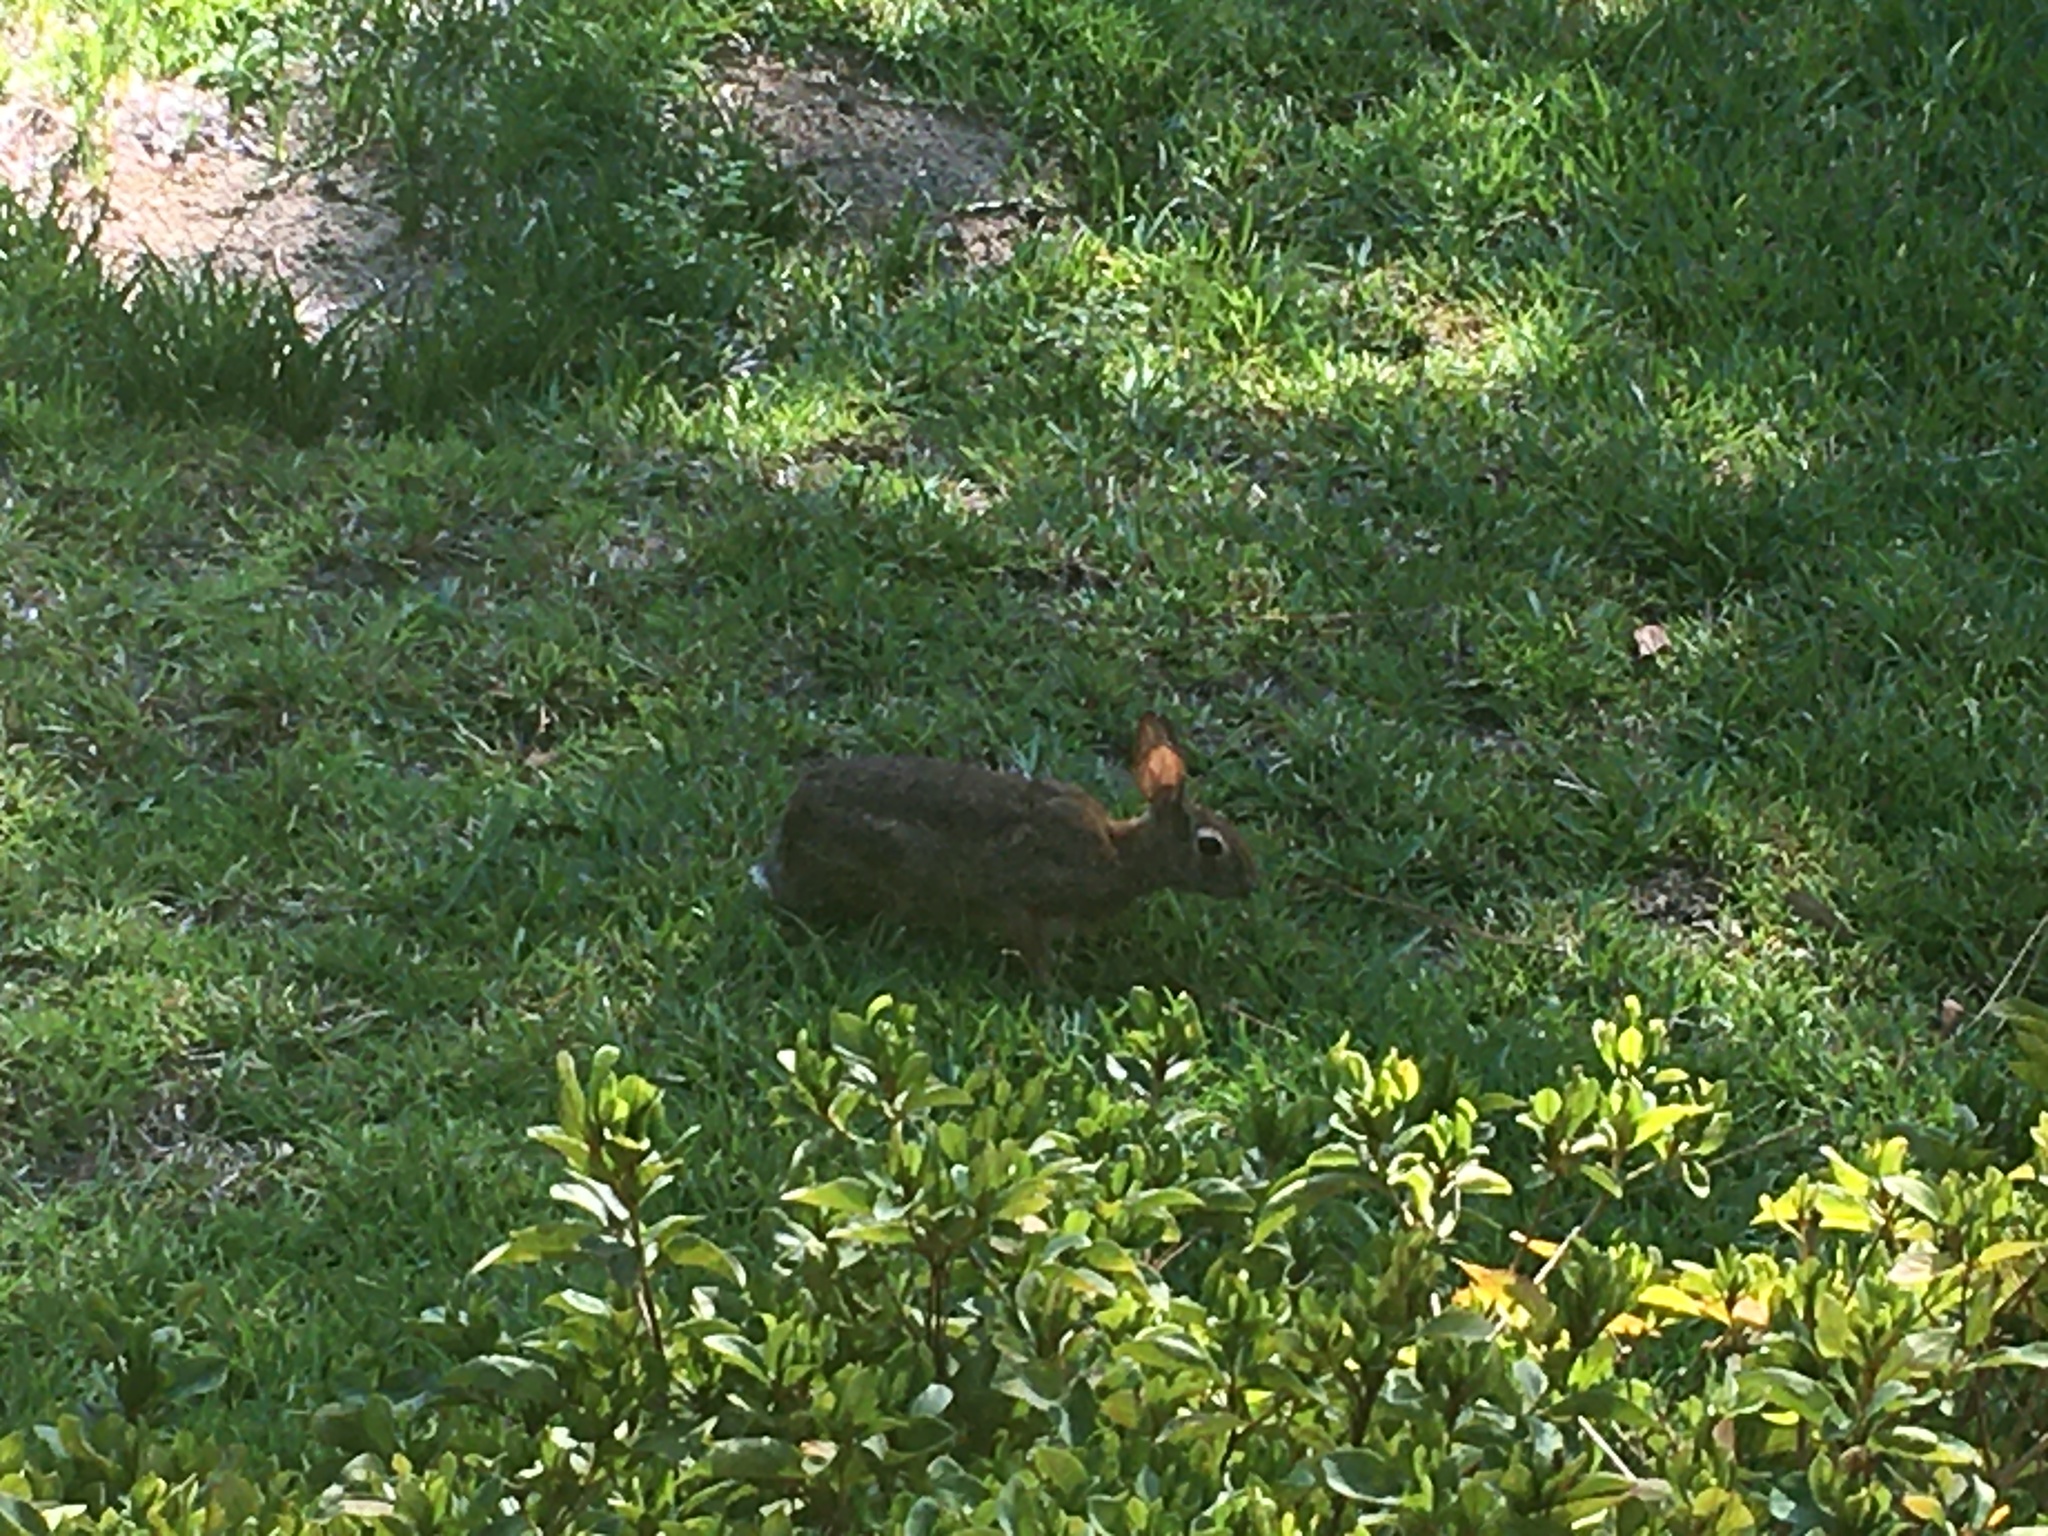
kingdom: Animalia
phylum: Chordata
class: Mammalia
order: Lagomorpha
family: Leporidae
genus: Sylvilagus
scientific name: Sylvilagus floridanus
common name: Eastern cottontail
